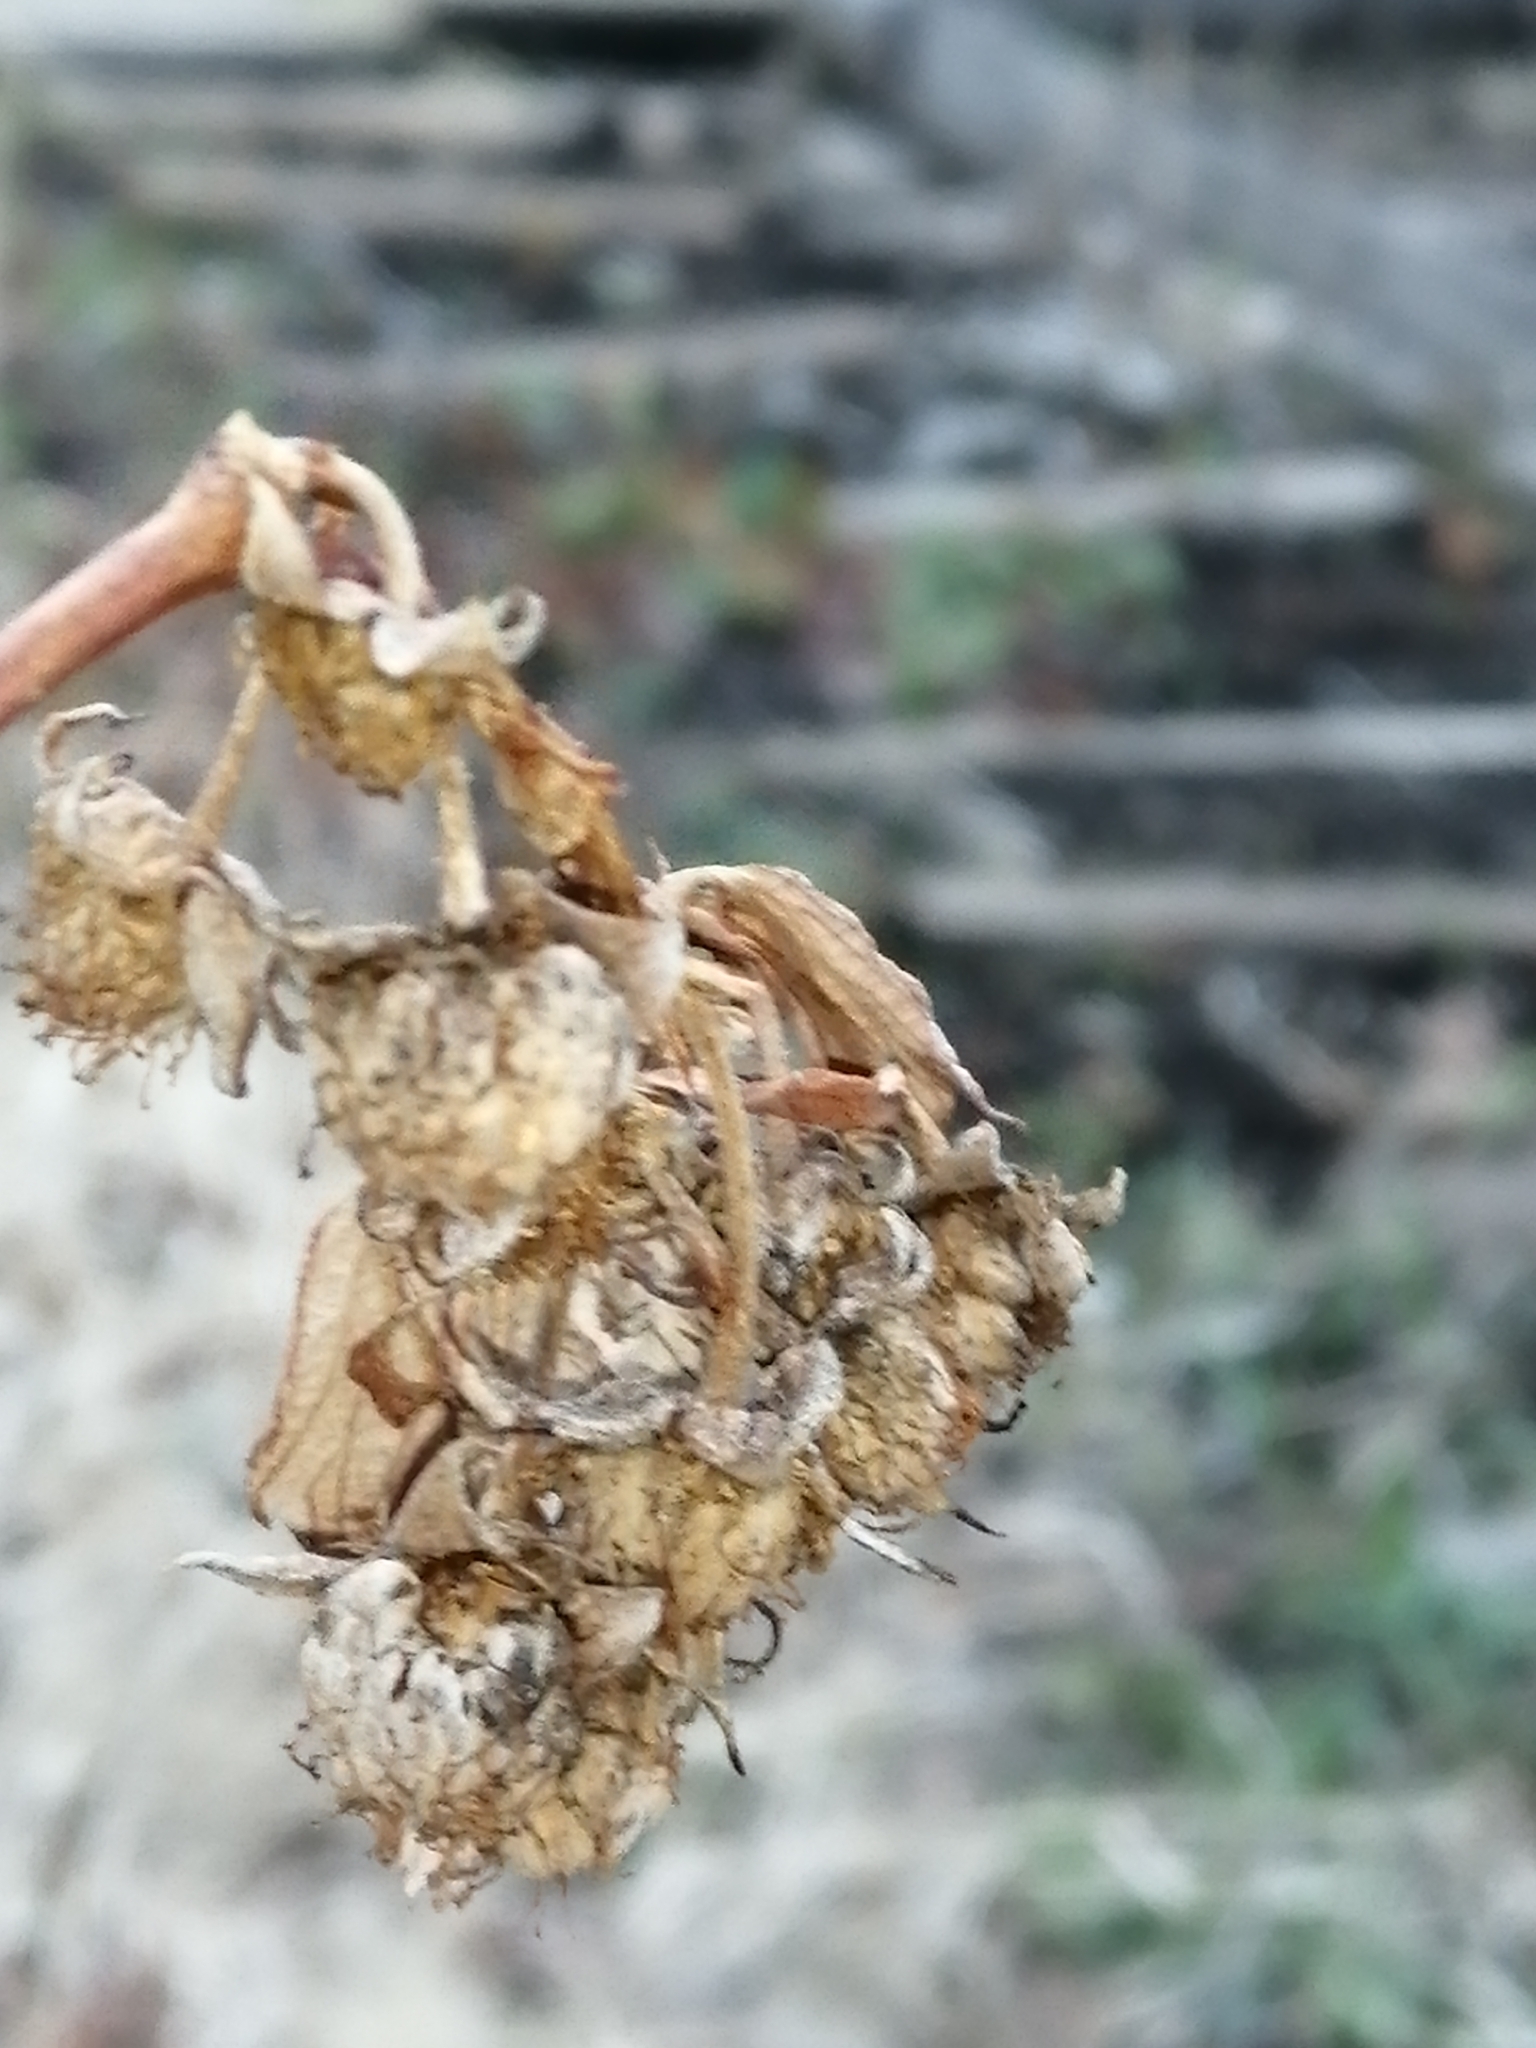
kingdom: Plantae
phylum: Tracheophyta
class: Magnoliopsida
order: Rosales
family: Rosaceae
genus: Rubus
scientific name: Rubus idaeus
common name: Raspberry
